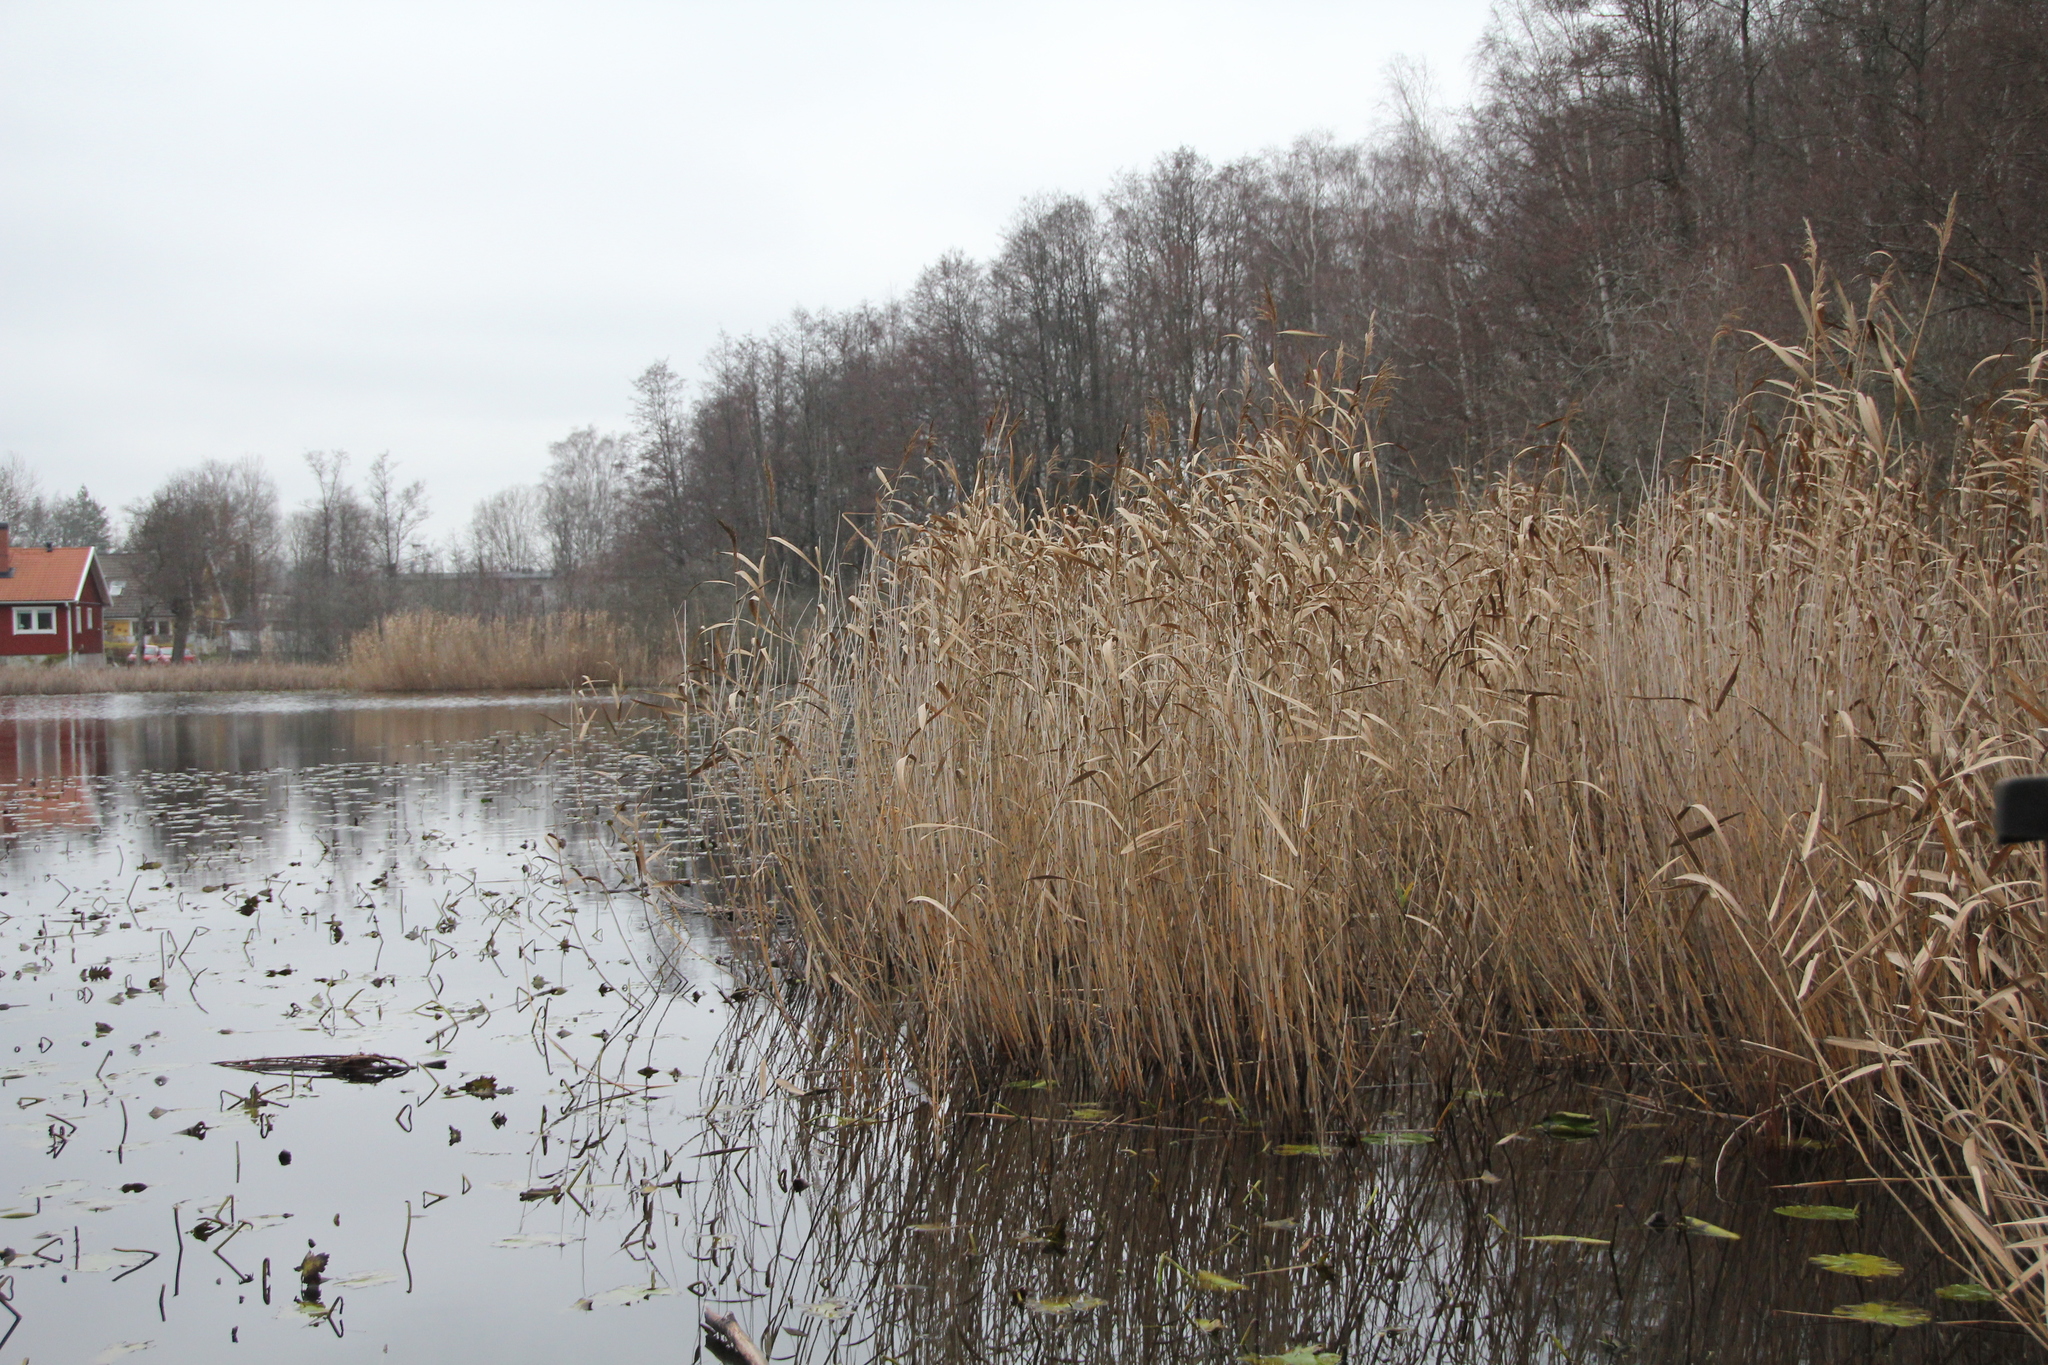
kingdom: Plantae
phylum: Tracheophyta
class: Liliopsida
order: Poales
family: Poaceae
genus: Phragmites
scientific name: Phragmites australis
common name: Common reed
